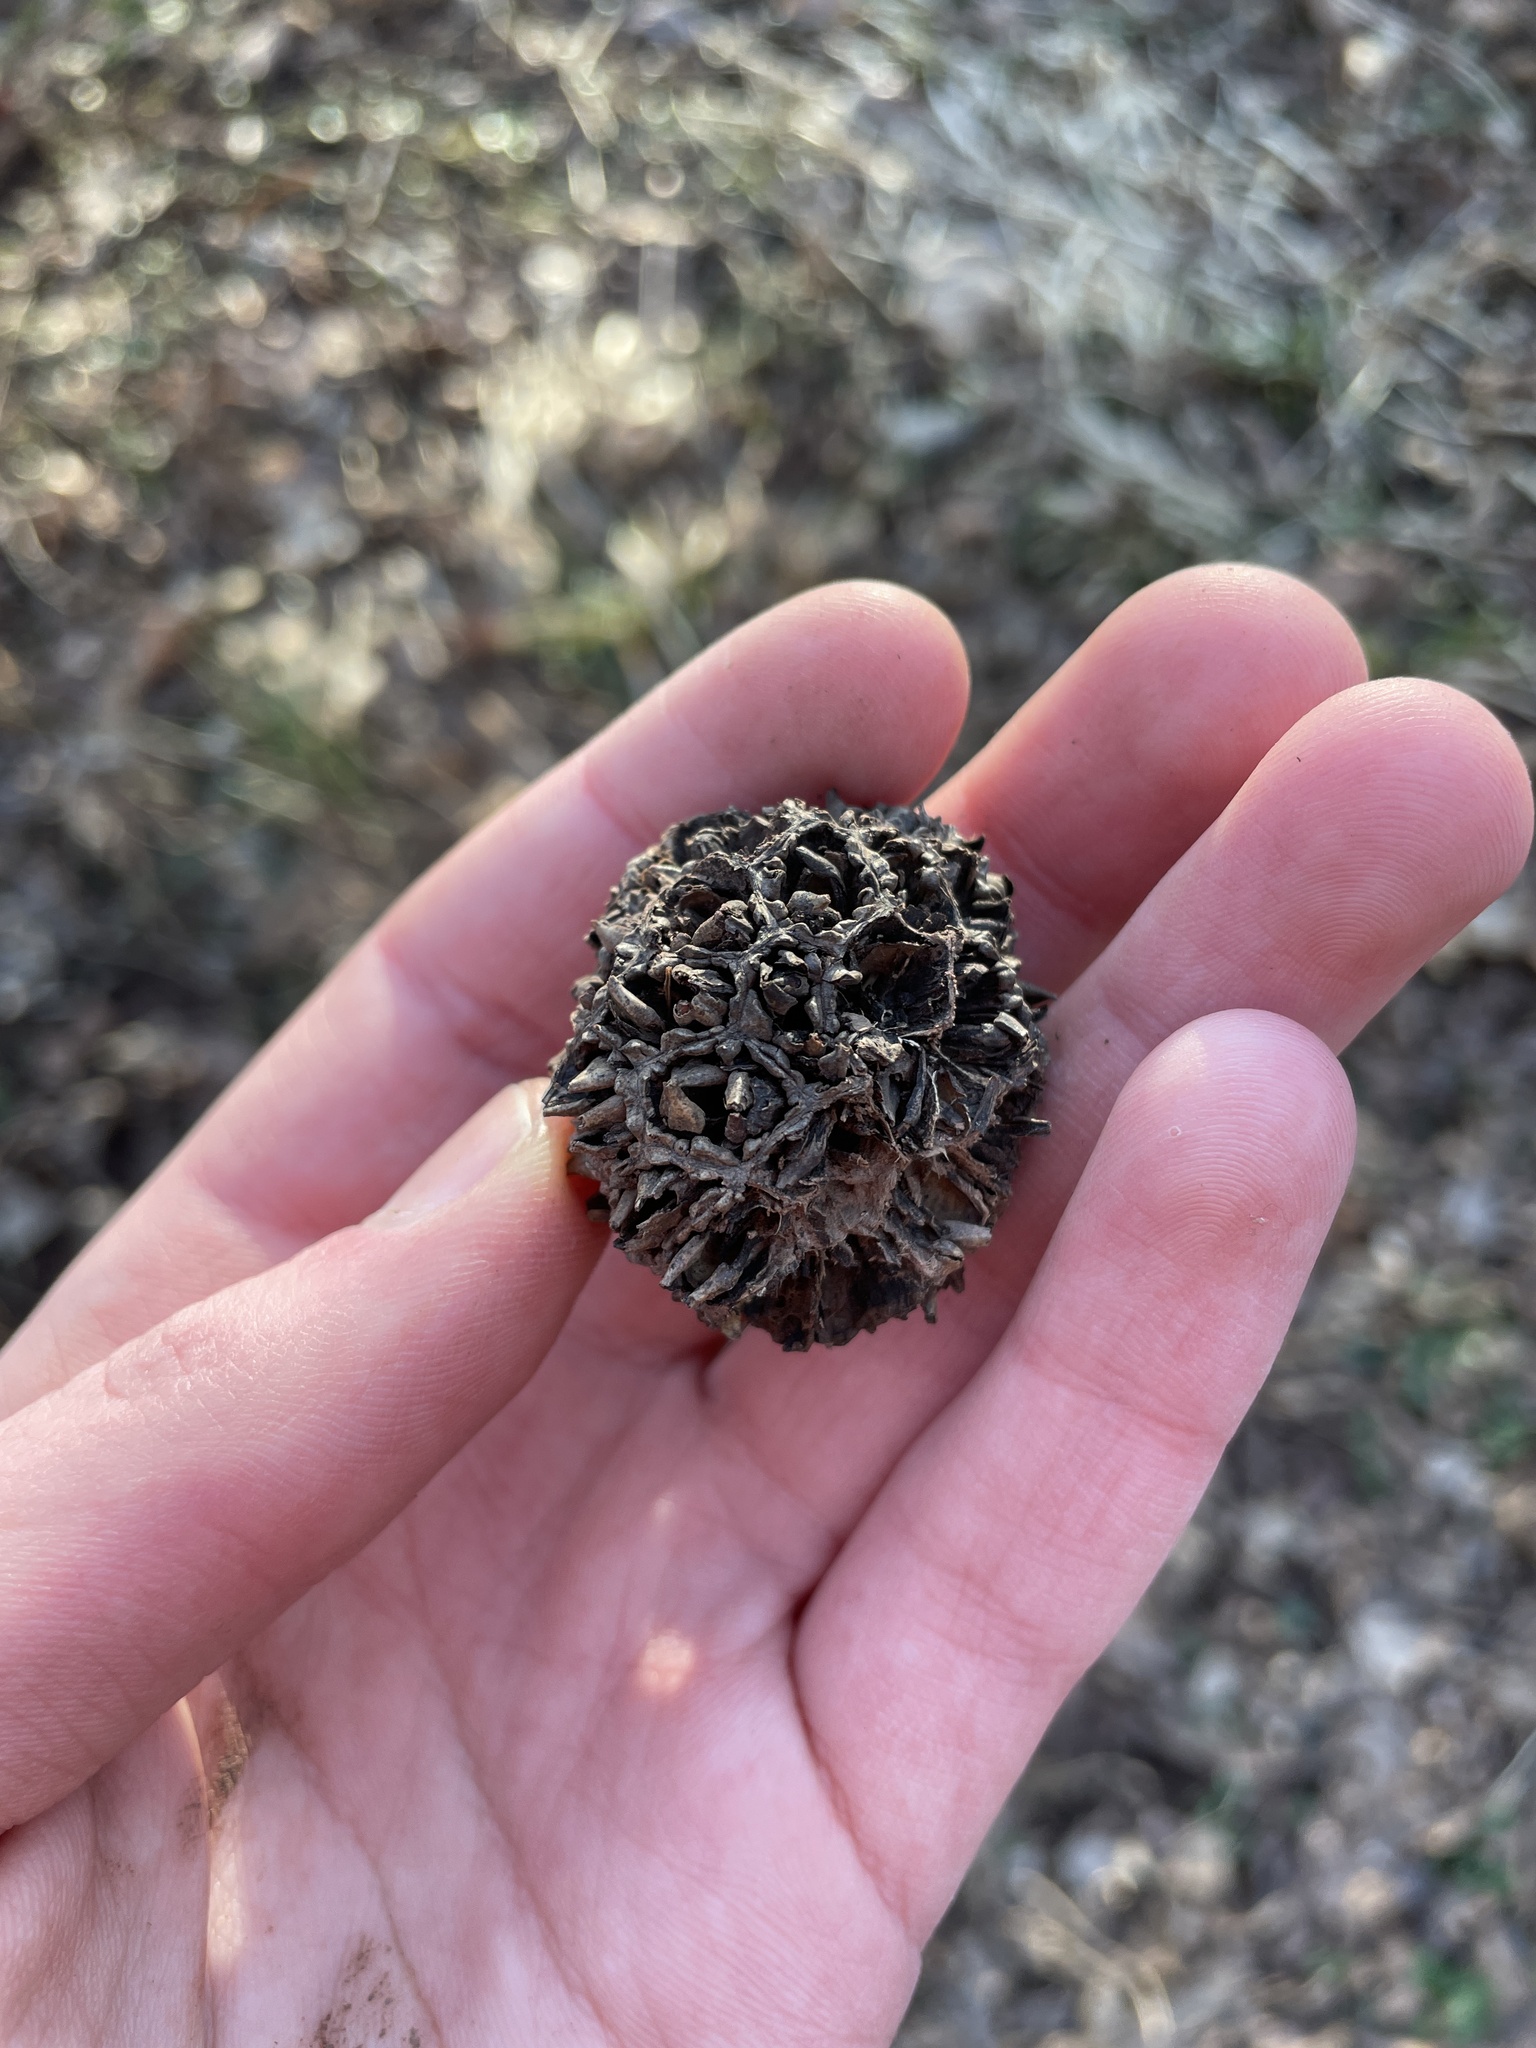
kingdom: Plantae
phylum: Tracheophyta
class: Magnoliopsida
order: Saxifragales
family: Altingiaceae
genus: Liquidambar
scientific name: Liquidambar styraciflua
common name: Sweet gum
